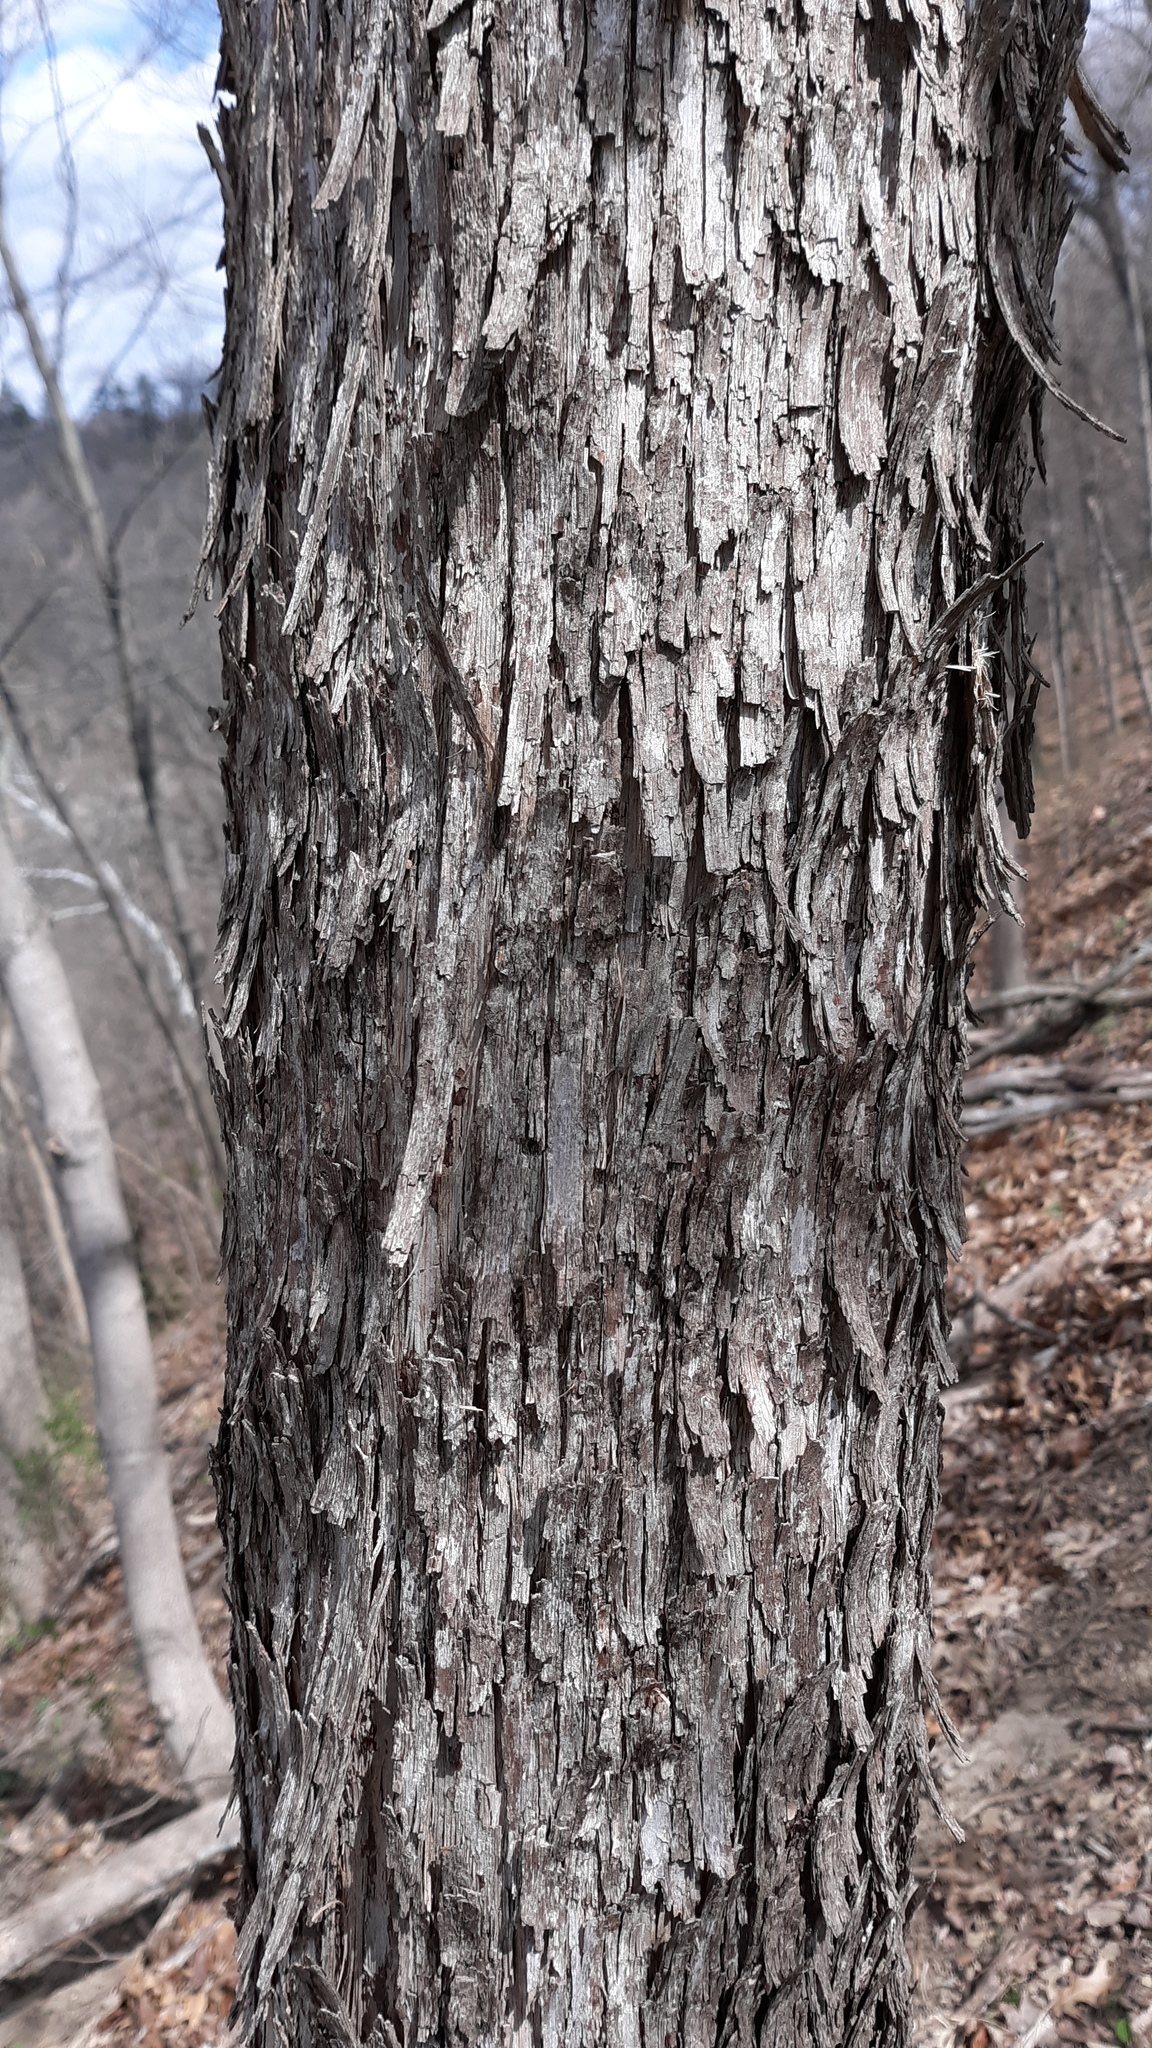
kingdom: Plantae
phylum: Tracheophyta
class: Magnoliopsida
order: Fagales
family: Betulaceae
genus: Ostrya
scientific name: Ostrya virginiana
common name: Ironwood
